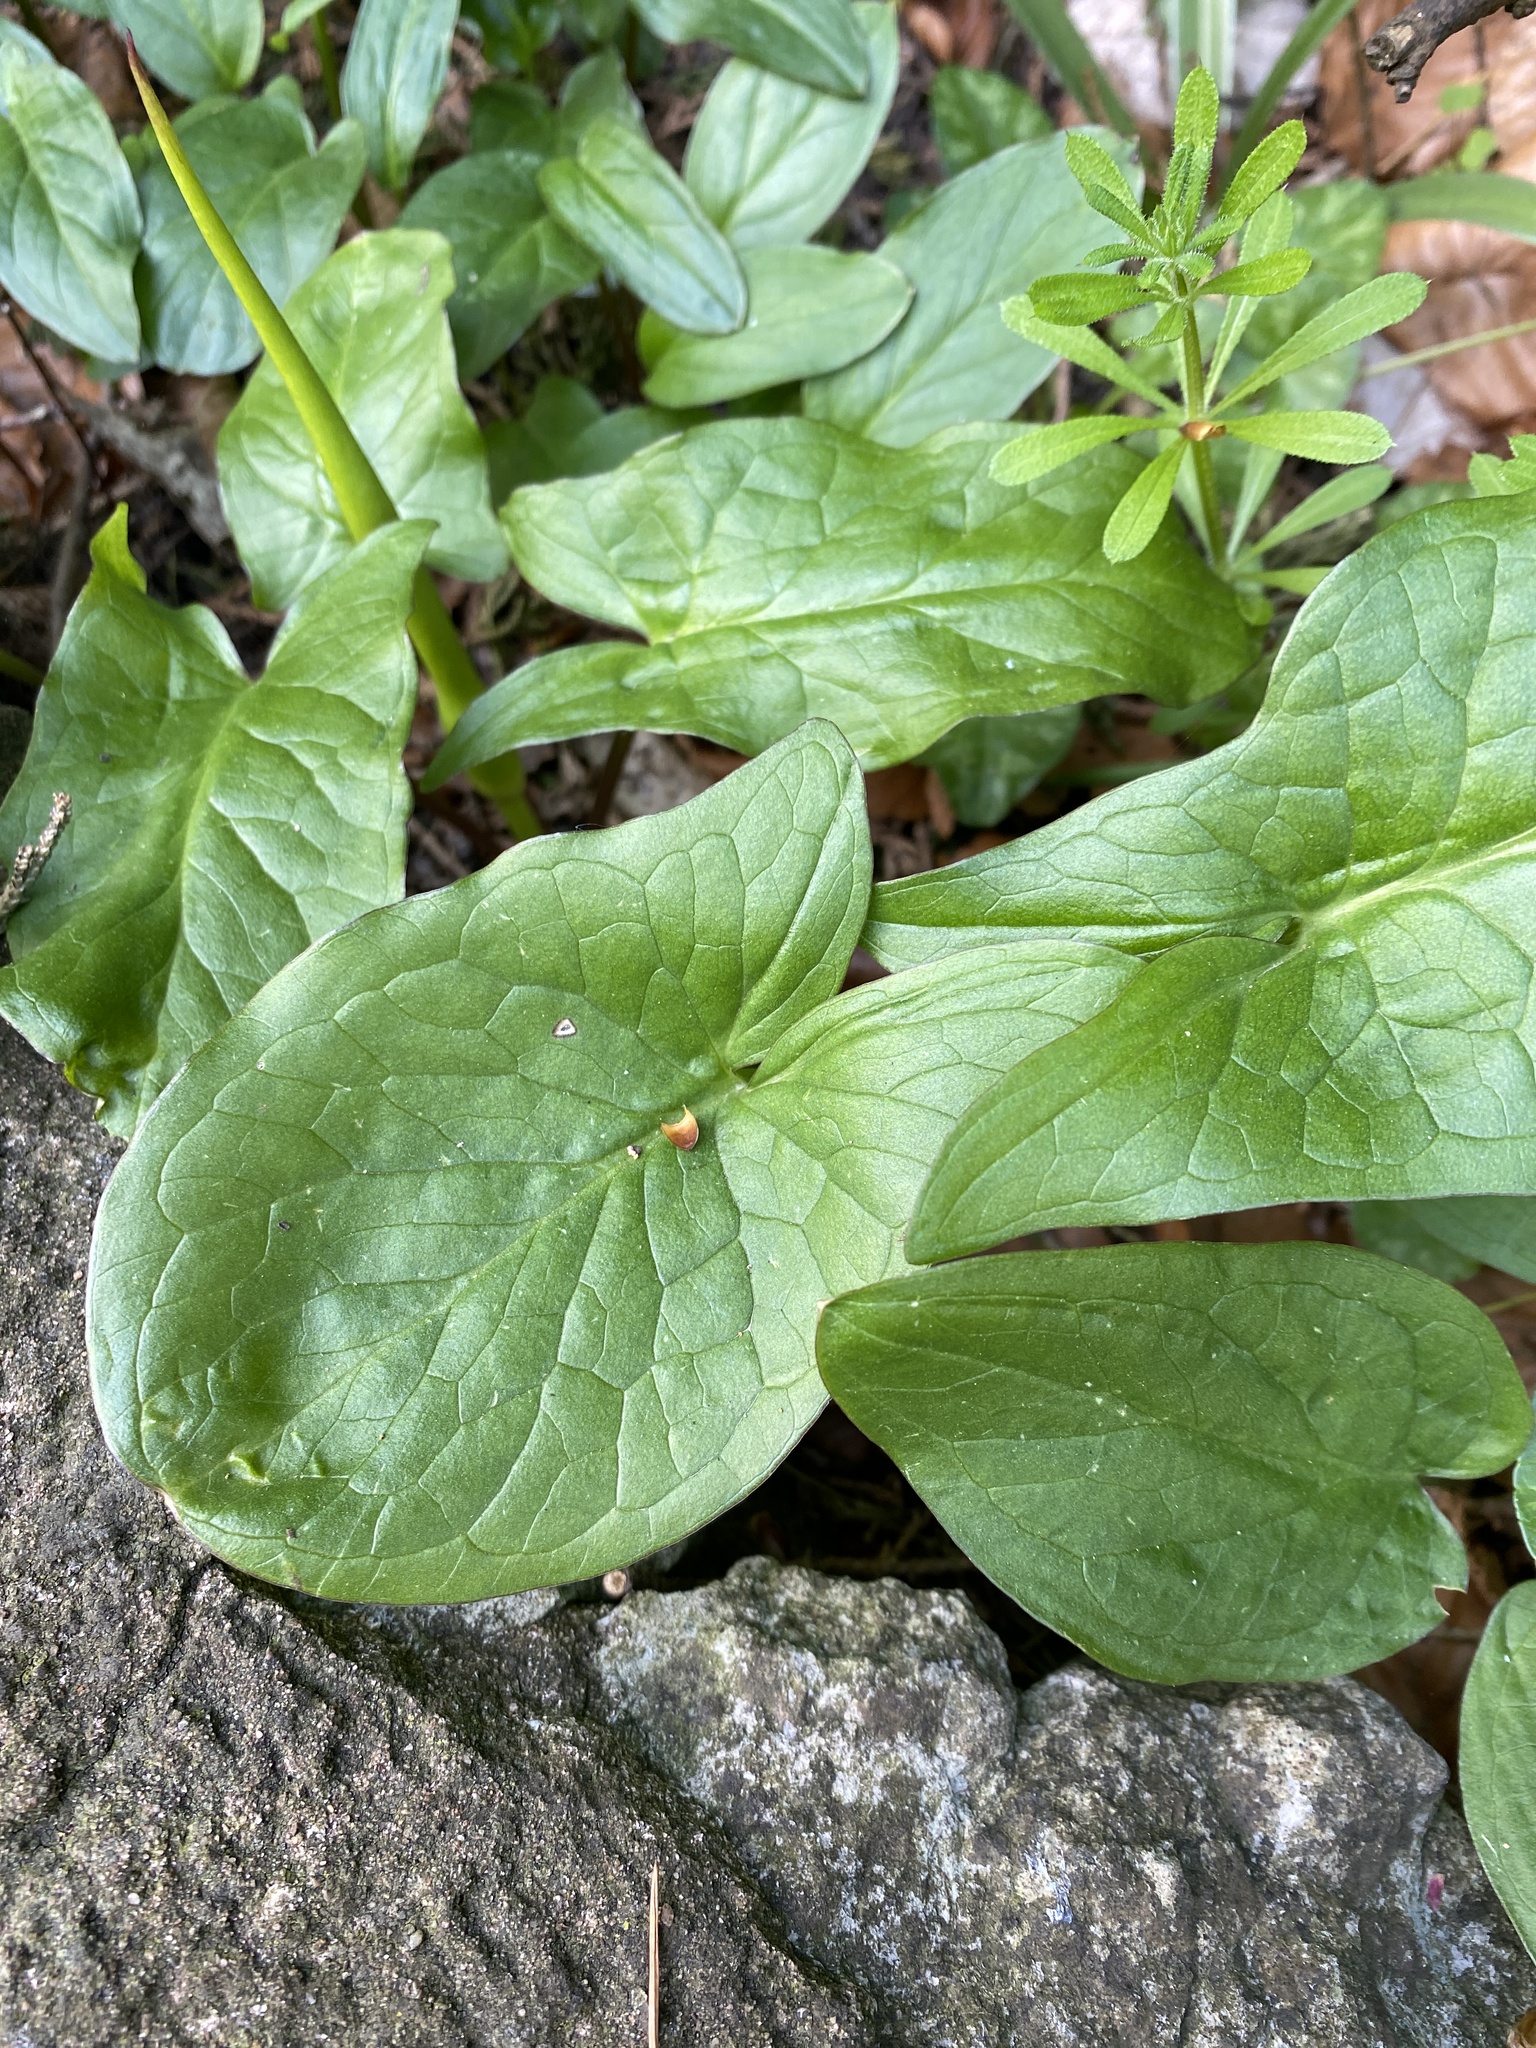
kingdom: Plantae
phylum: Tracheophyta
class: Liliopsida
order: Alismatales
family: Araceae
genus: Arum
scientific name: Arum maculatum
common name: Lords-and-ladies
